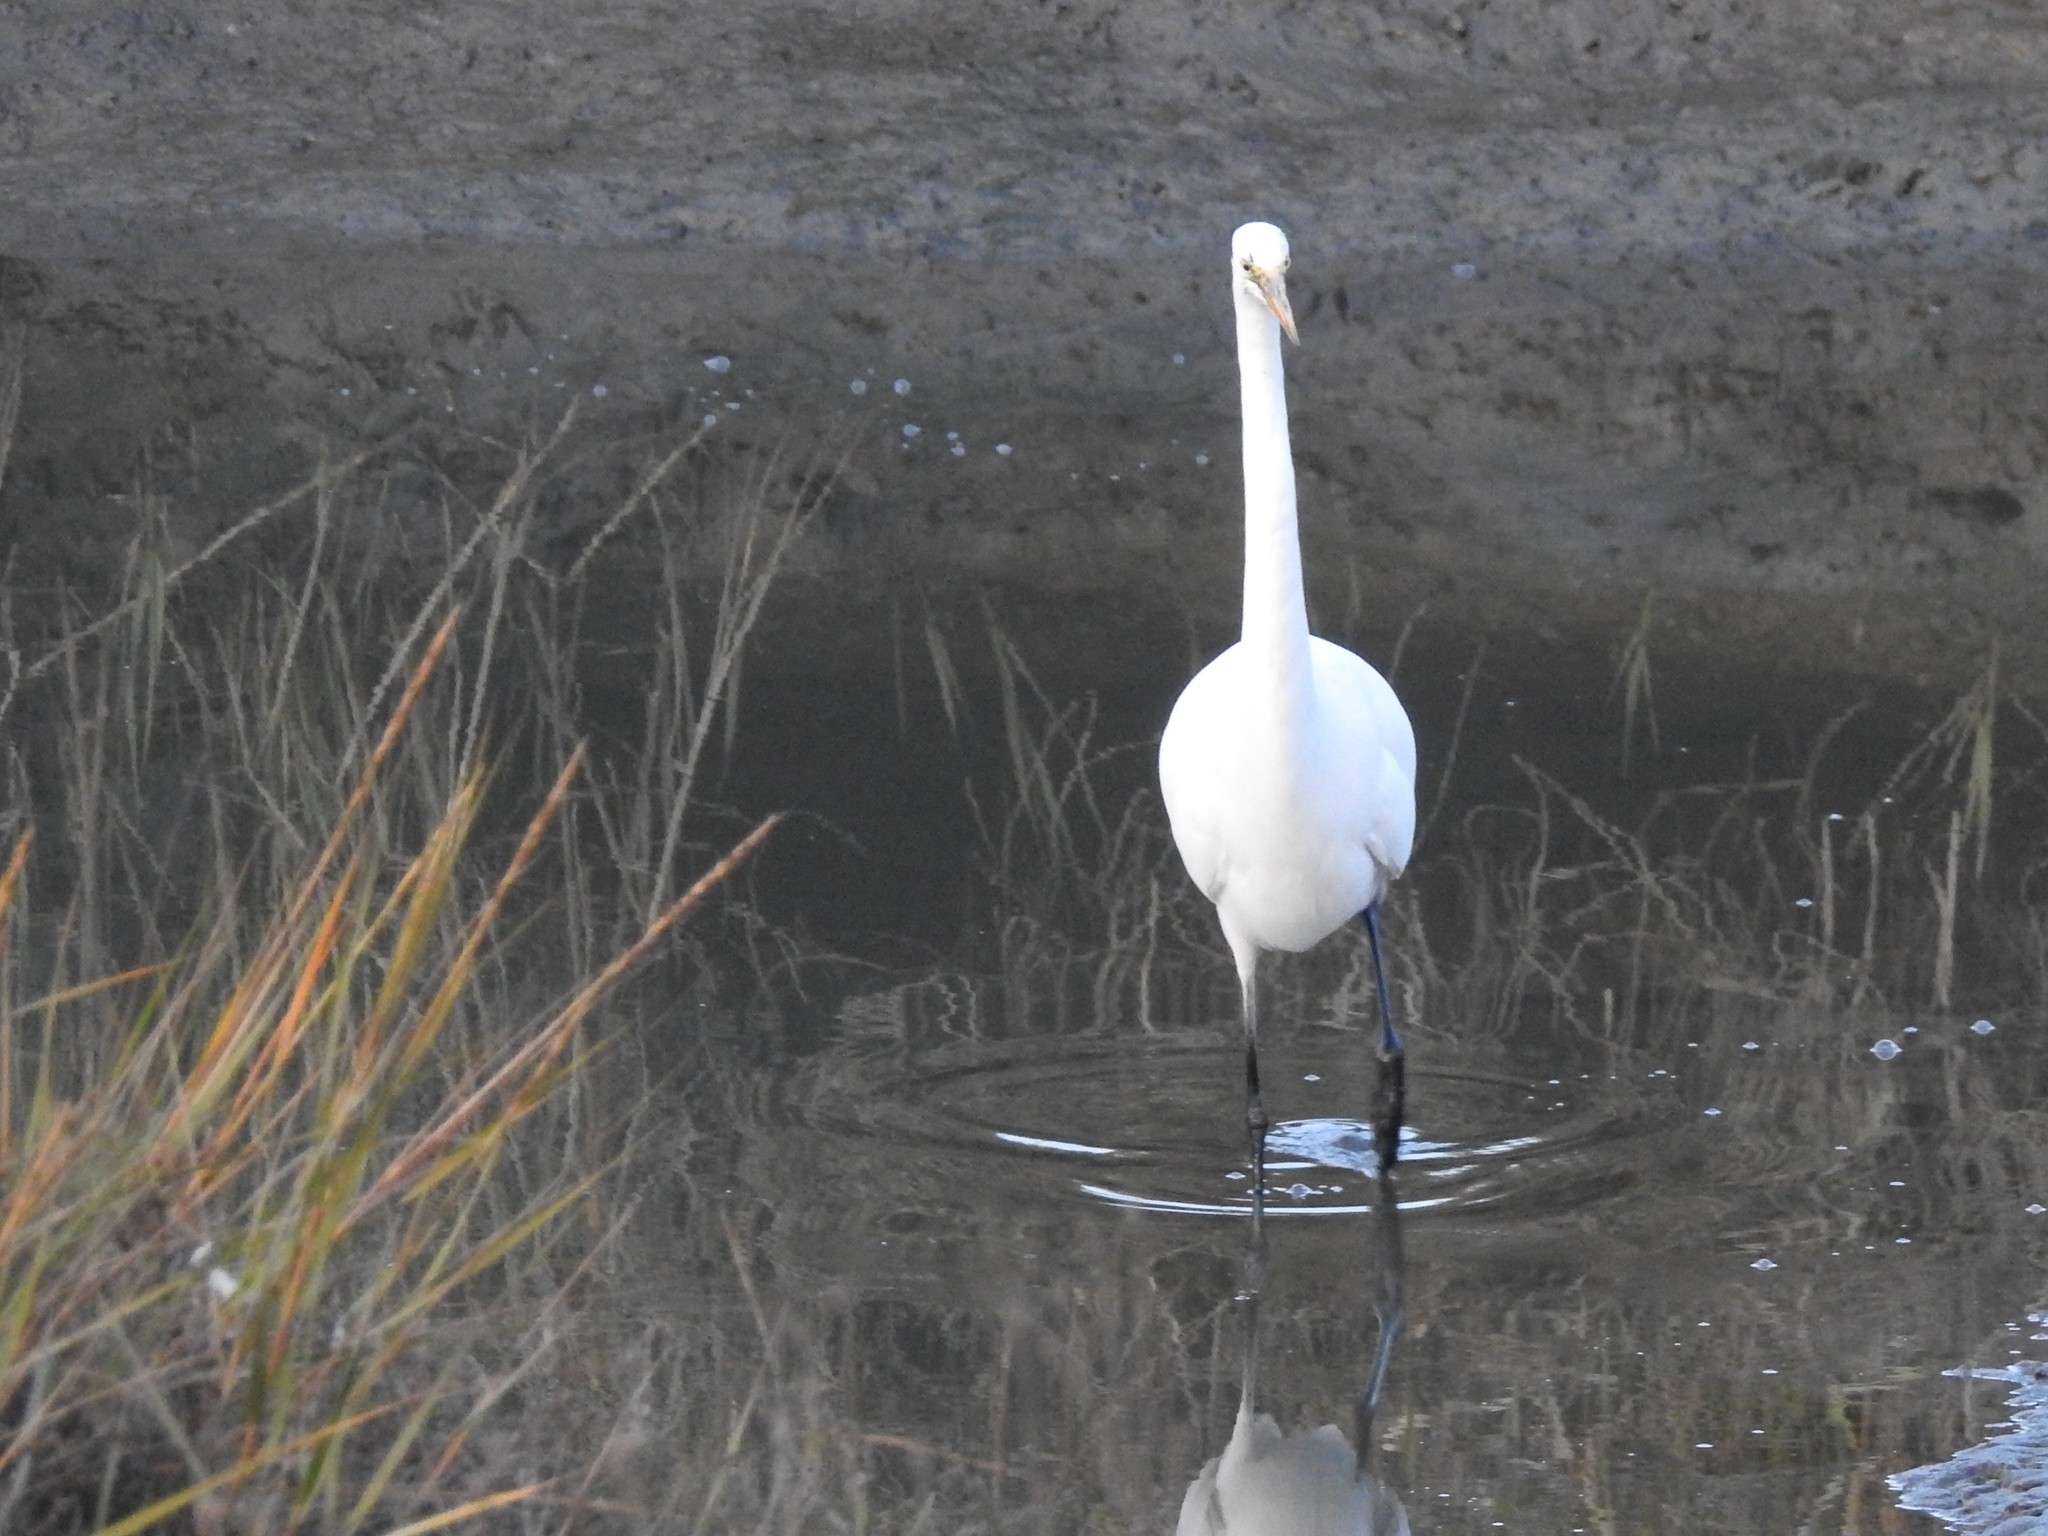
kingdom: Animalia
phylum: Chordata
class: Aves
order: Pelecaniformes
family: Ardeidae
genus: Ardea
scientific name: Ardea alba
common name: Great egret
